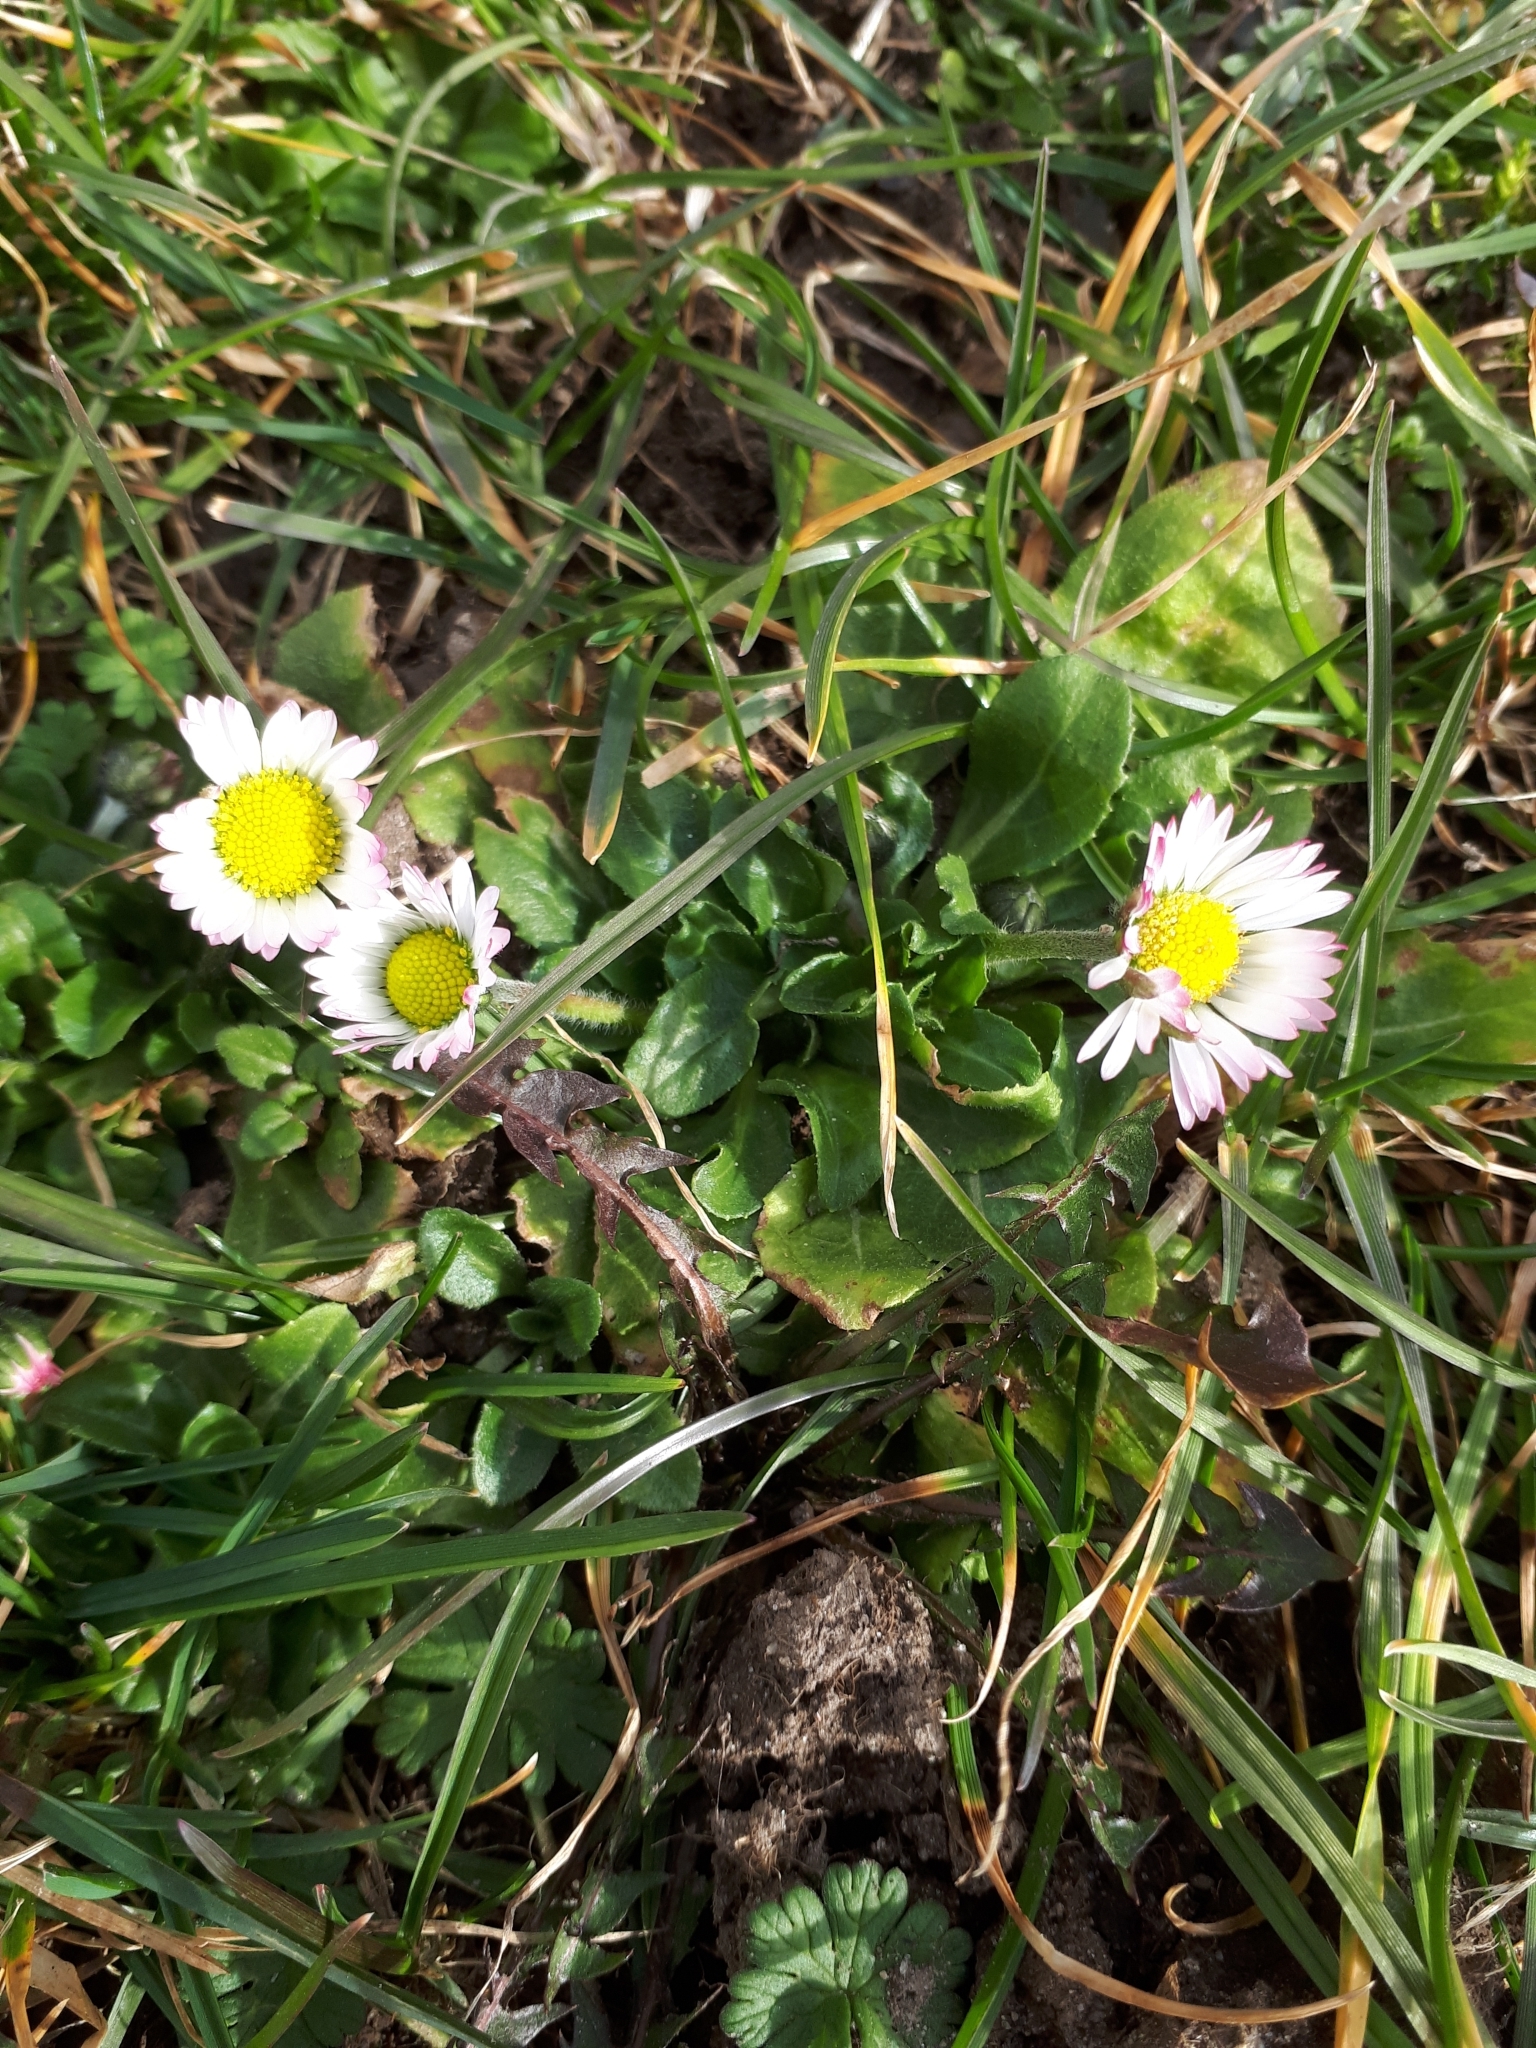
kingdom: Plantae
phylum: Tracheophyta
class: Magnoliopsida
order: Asterales
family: Asteraceae
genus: Bellis
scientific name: Bellis perennis
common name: Lawndaisy
